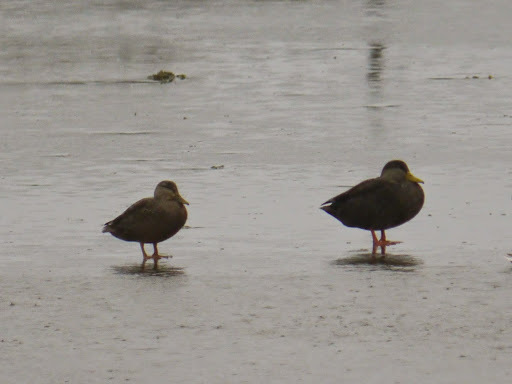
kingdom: Animalia
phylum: Chordata
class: Aves
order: Anseriformes
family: Anatidae
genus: Anas
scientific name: Anas rubripes
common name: American black duck
